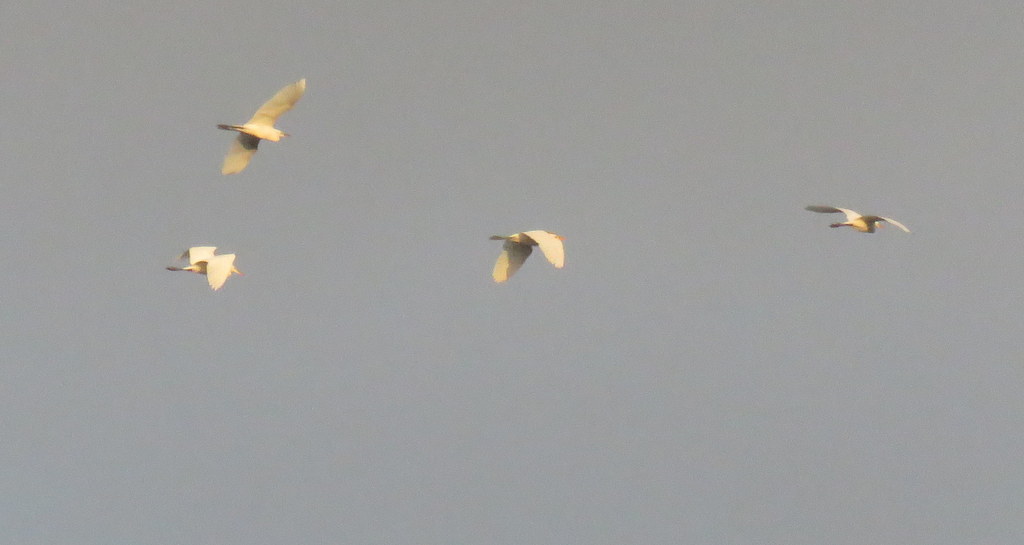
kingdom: Animalia
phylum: Chordata
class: Aves
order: Pelecaniformes
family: Ardeidae
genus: Bubulcus
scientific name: Bubulcus ibis
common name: Cattle egret
